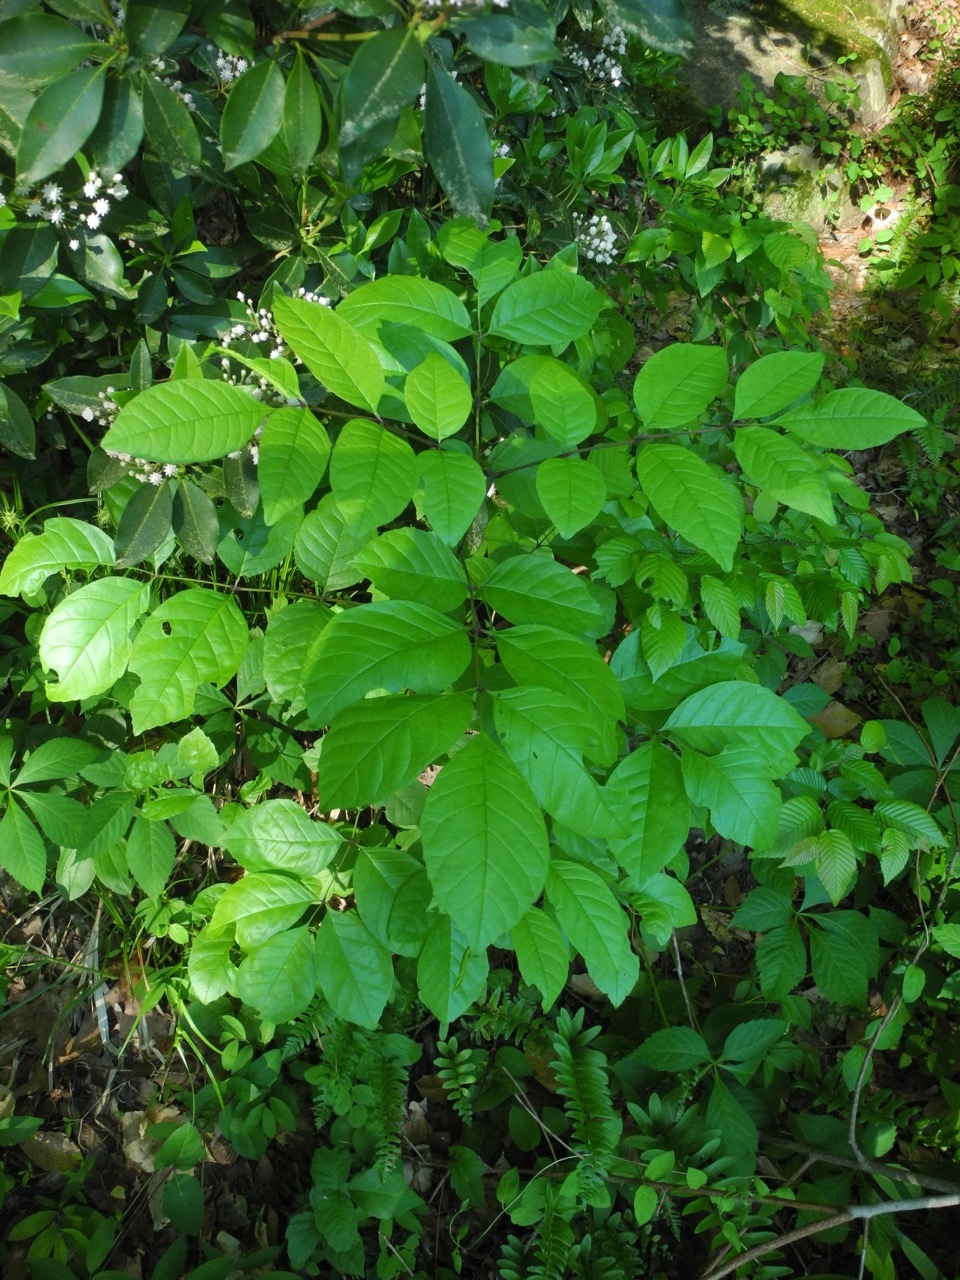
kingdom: Plantae
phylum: Tracheophyta
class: Magnoliopsida
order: Lamiales
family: Oleaceae
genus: Fraxinus
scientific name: Fraxinus pennsylvanica
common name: Green ash
